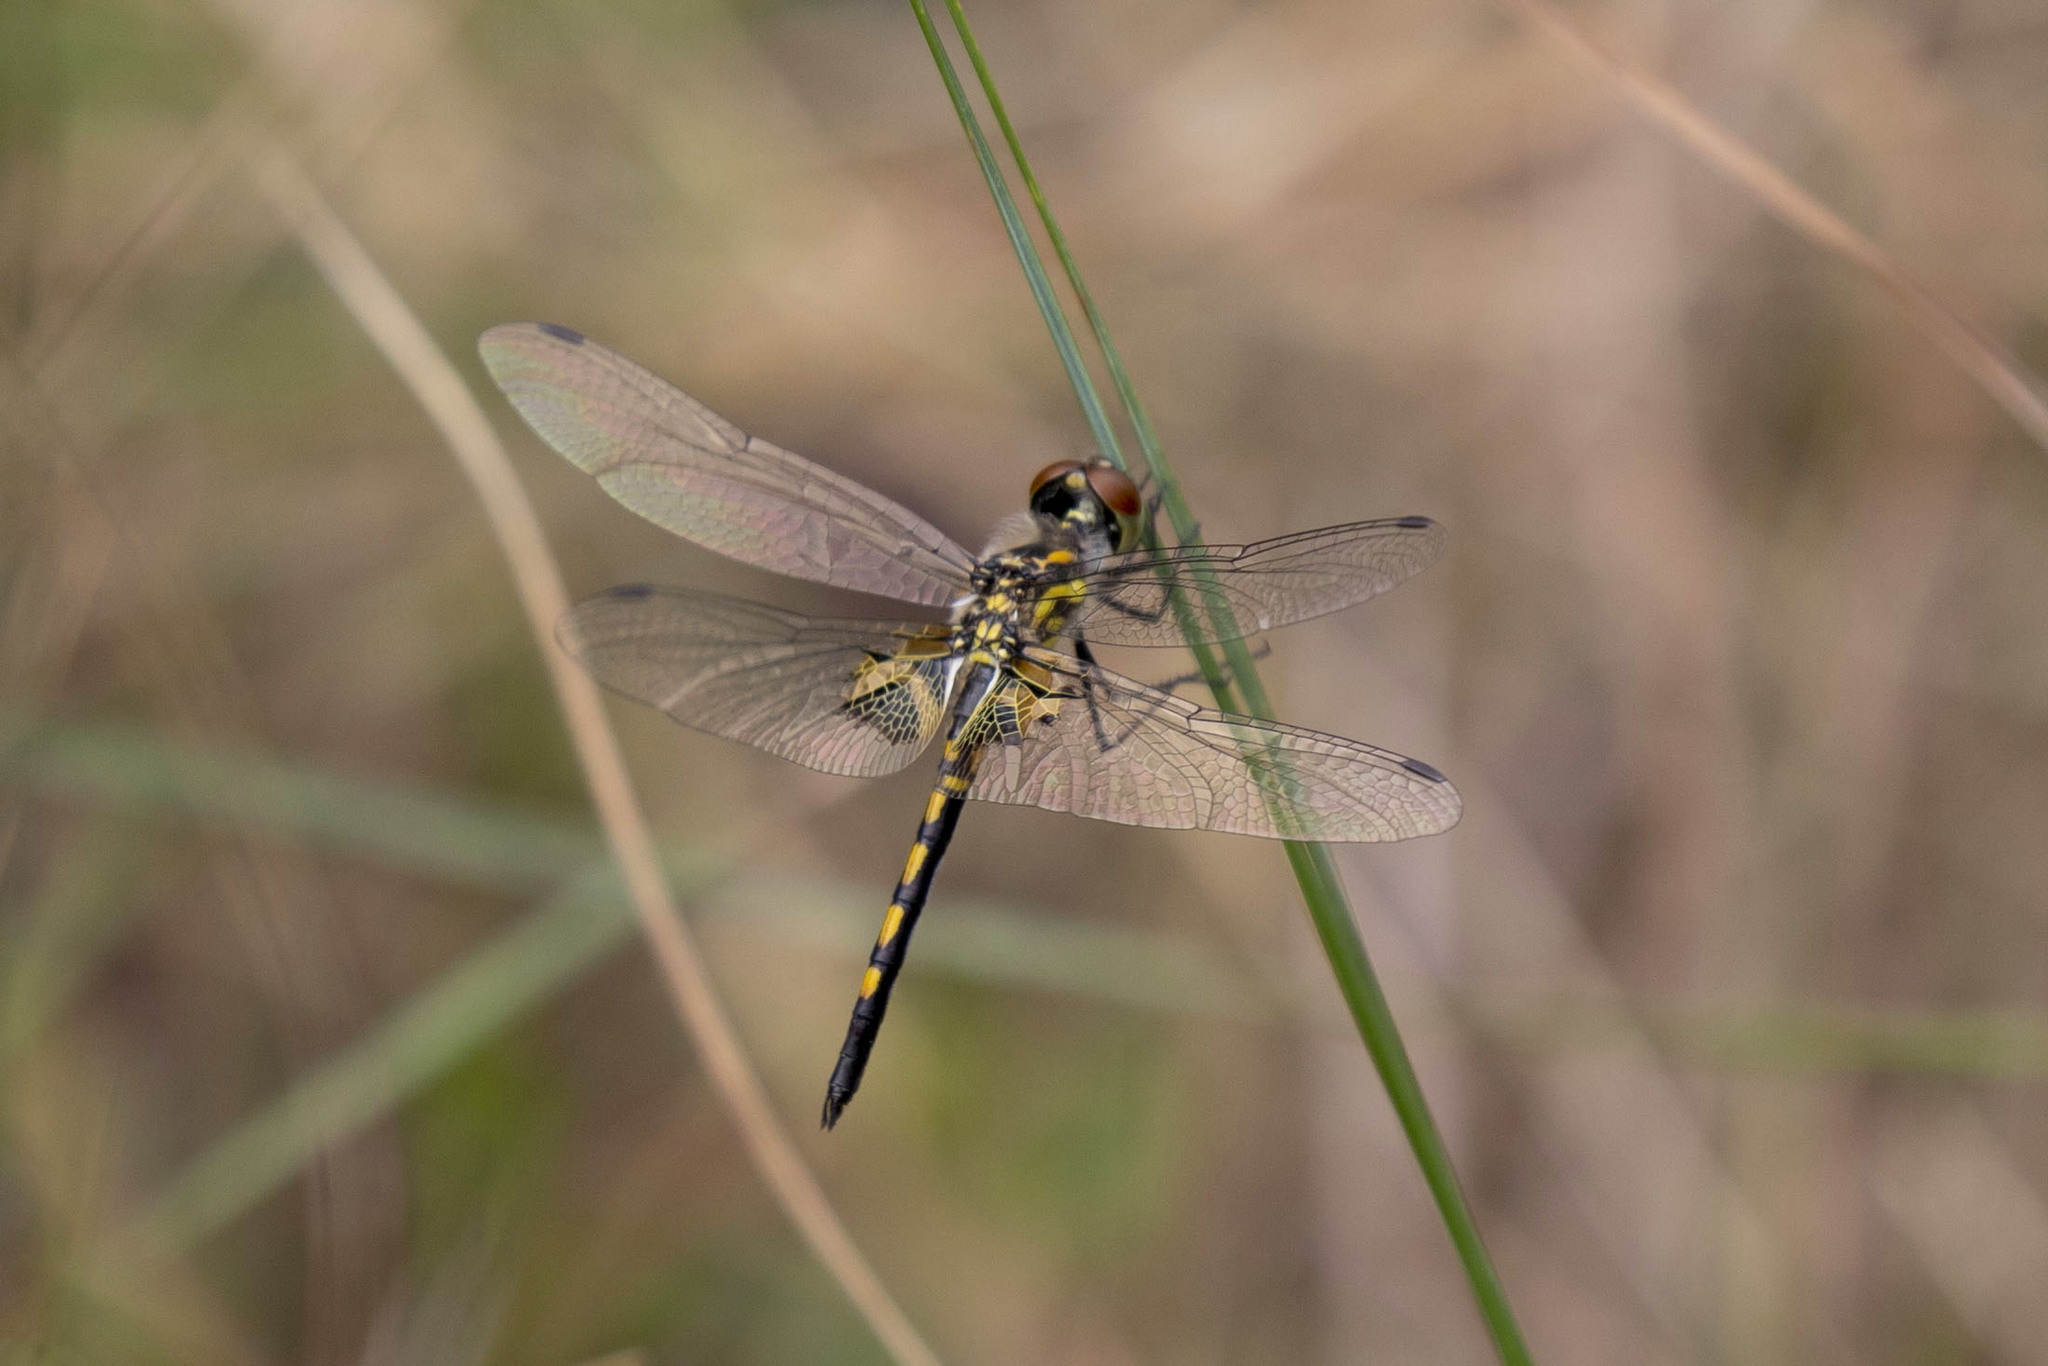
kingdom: Animalia
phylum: Arthropoda
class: Insecta
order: Odonata
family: Libellulidae
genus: Celithemis
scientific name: Celithemis ornata
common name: Ornate pennant
